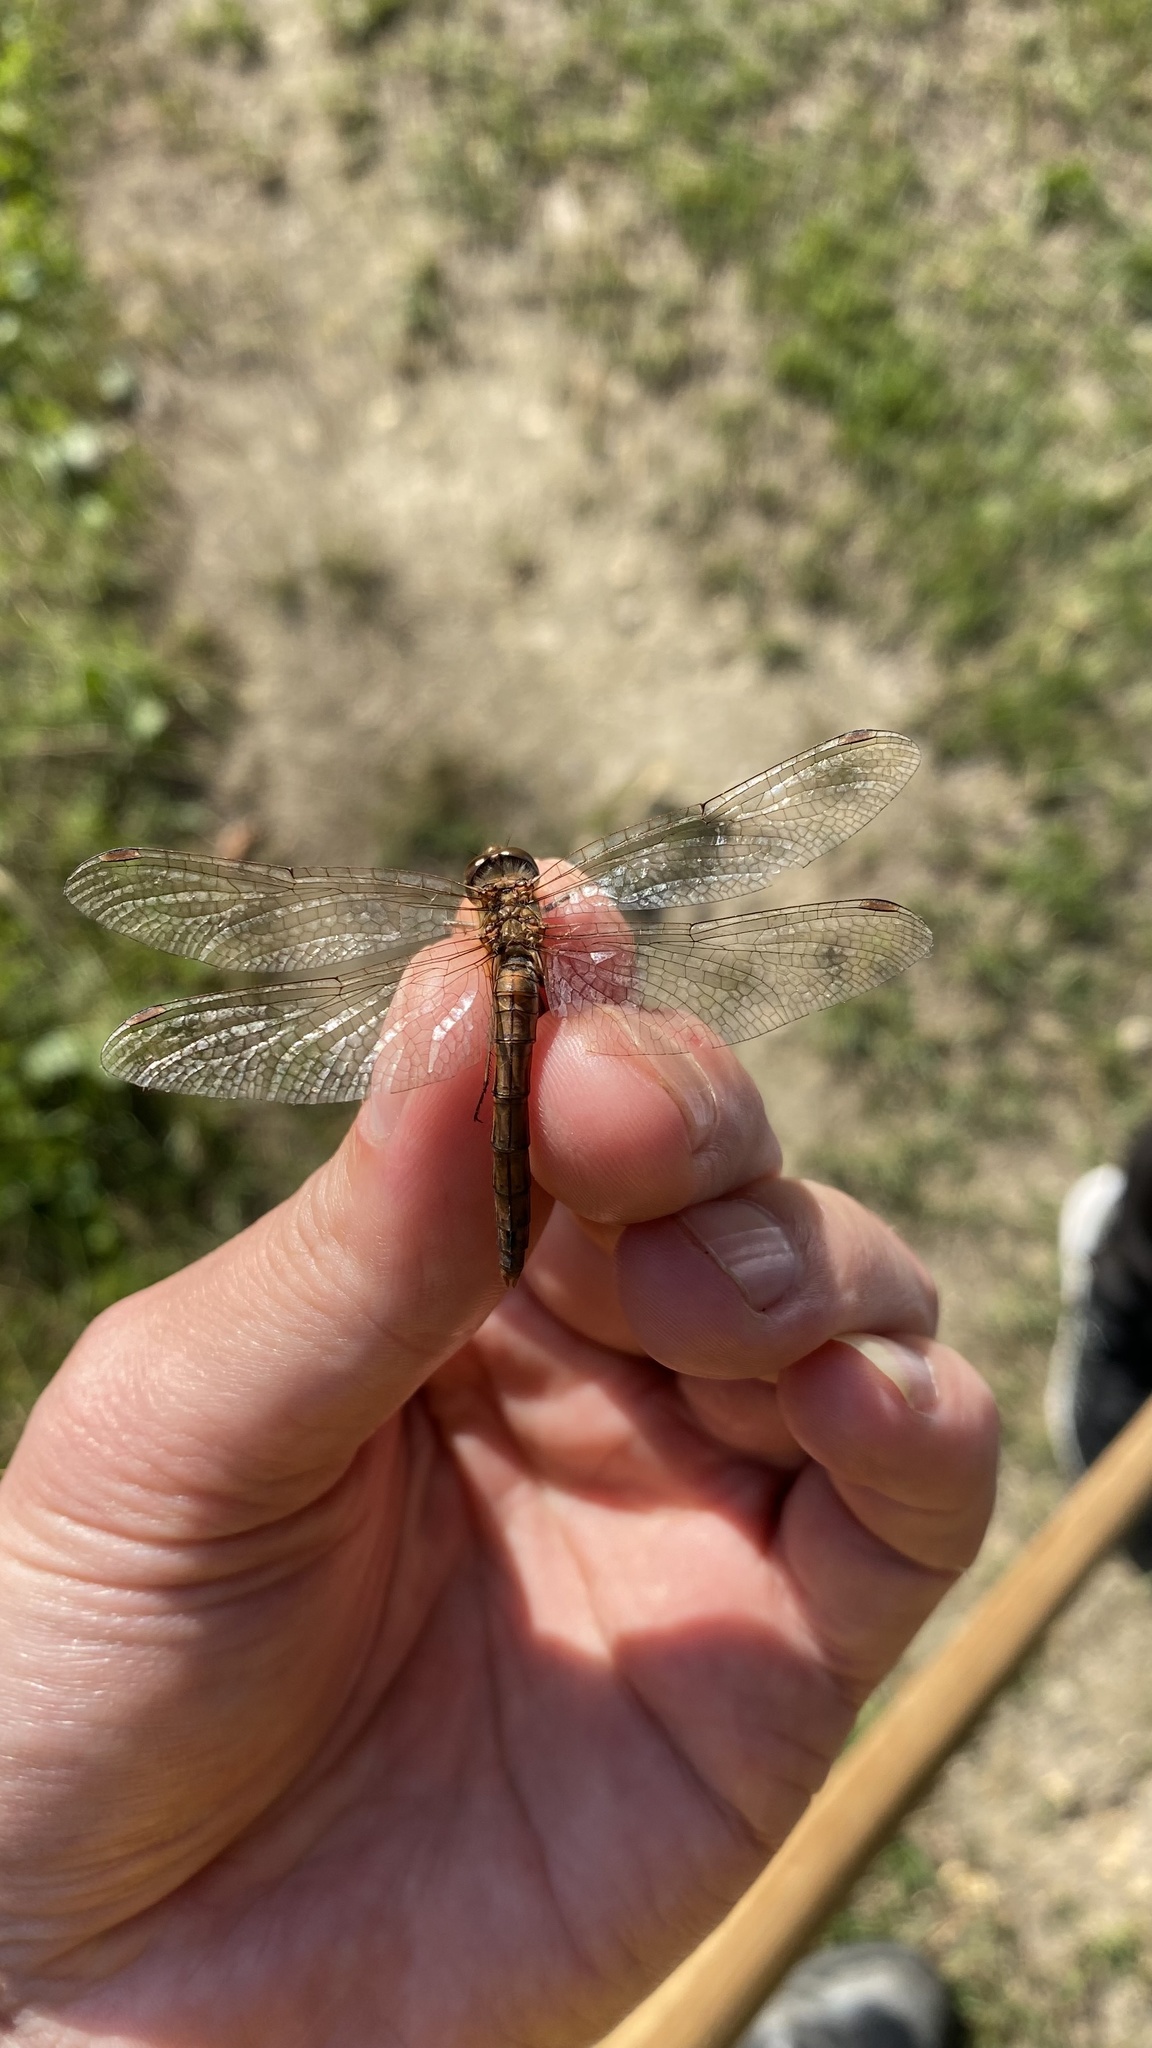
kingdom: Animalia
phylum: Arthropoda
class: Insecta
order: Odonata
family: Libellulidae
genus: Sympetrum
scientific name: Sympetrum vulgatum
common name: Vagrant darter
